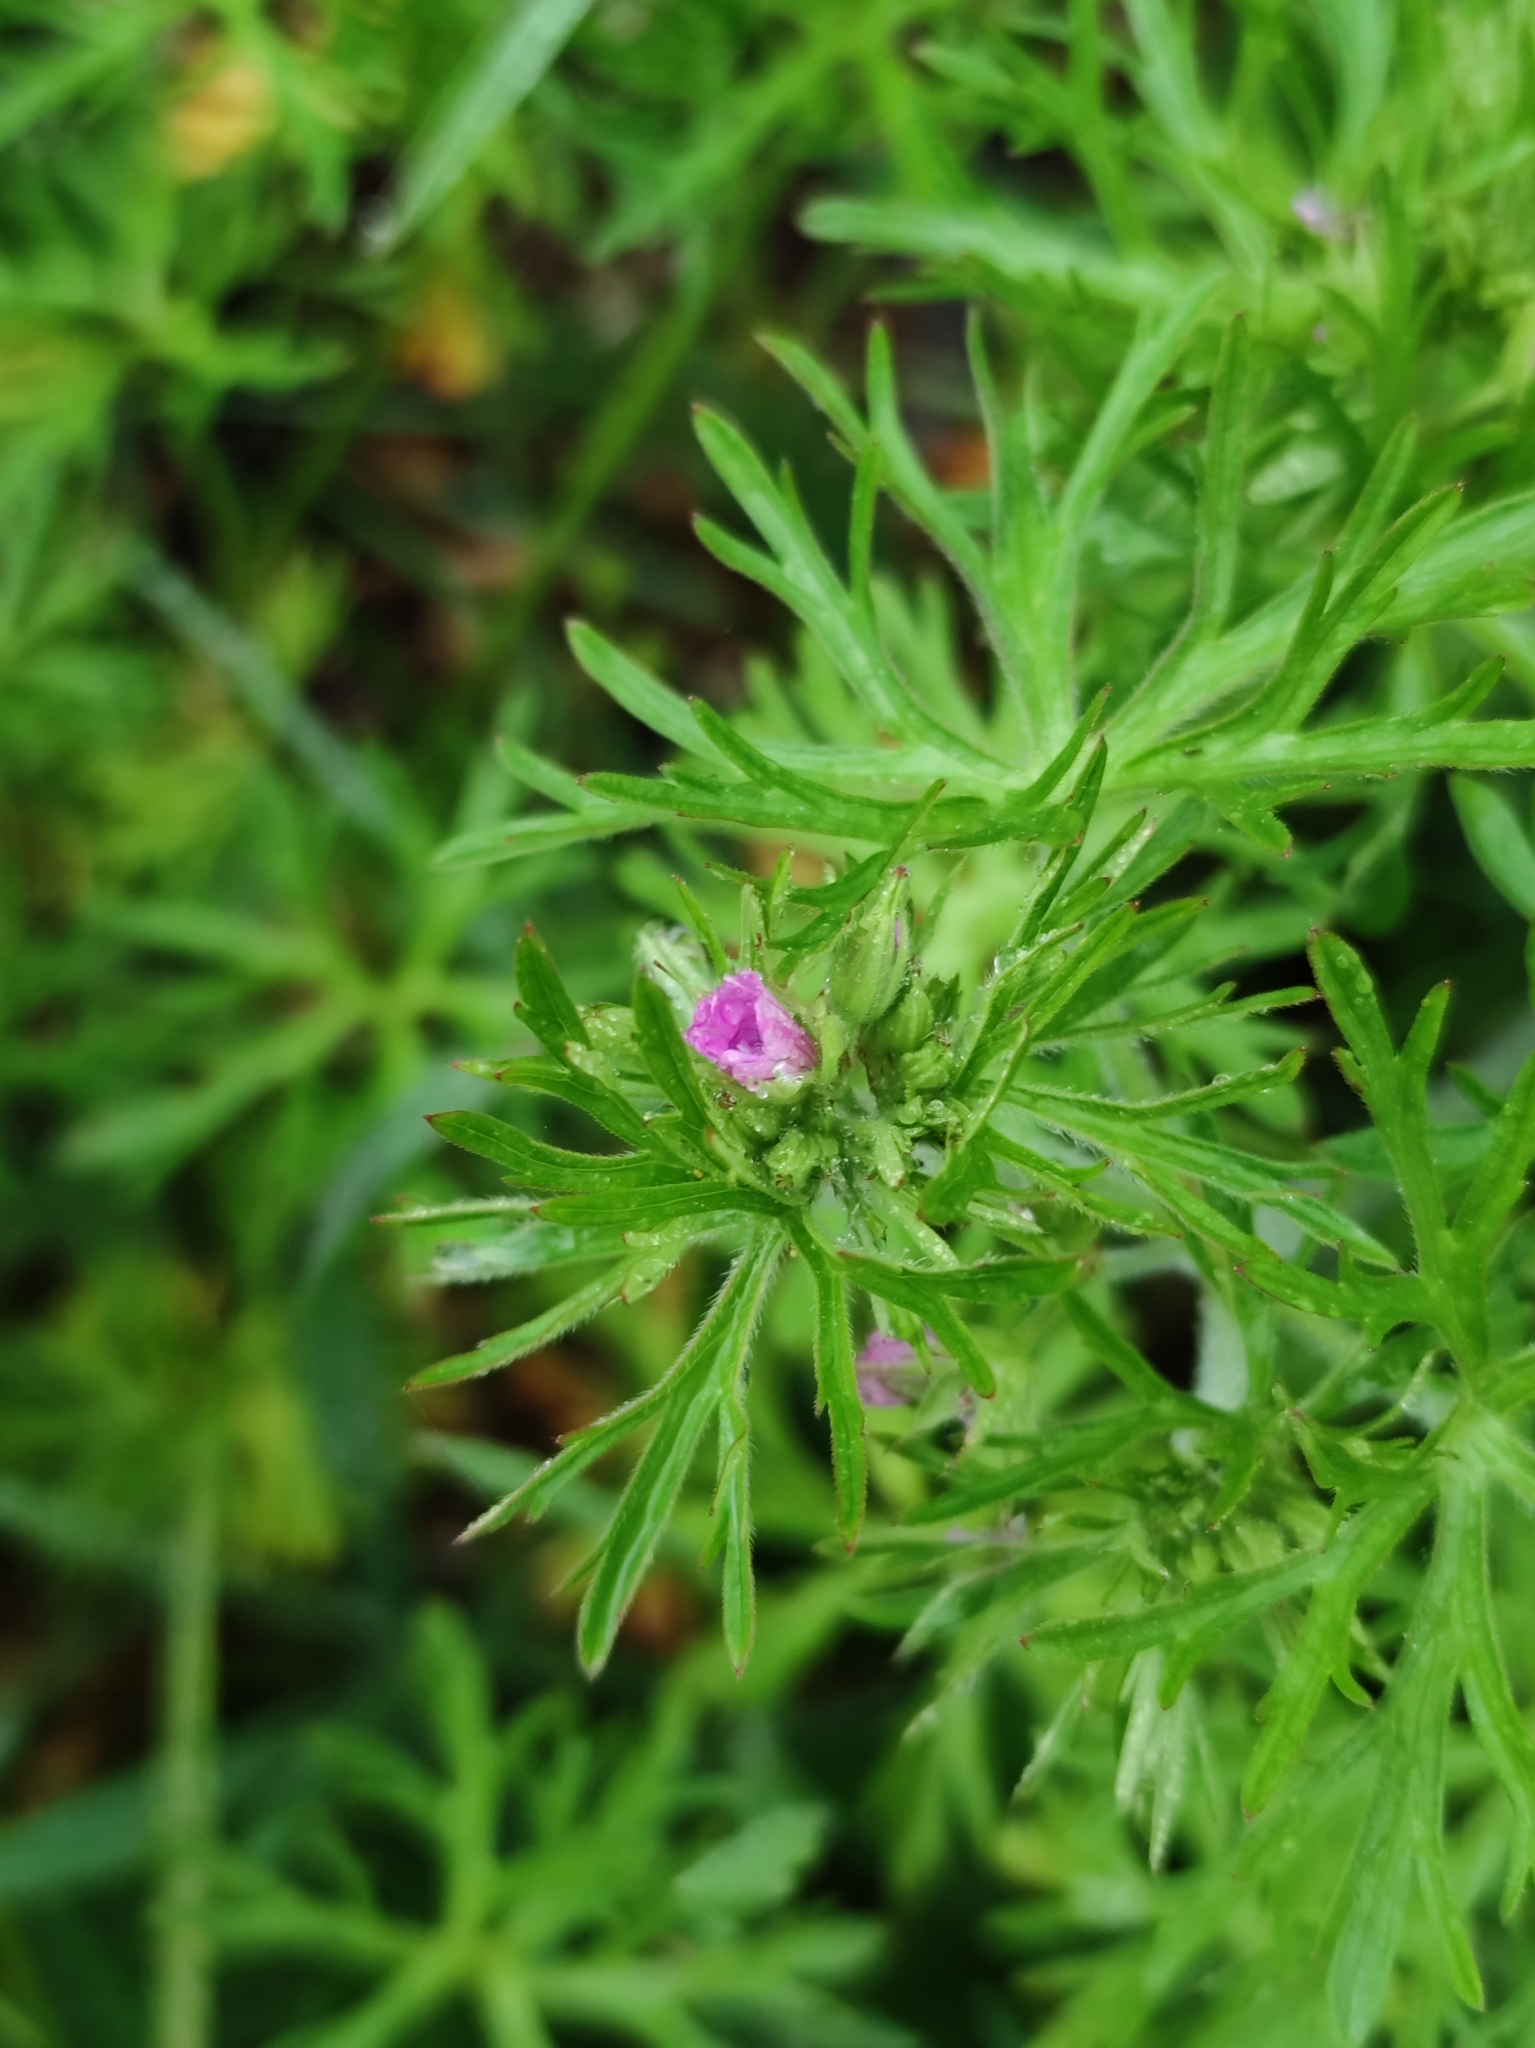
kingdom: Plantae
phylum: Tracheophyta
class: Magnoliopsida
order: Geraniales
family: Geraniaceae
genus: Geranium
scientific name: Geranium dissectum
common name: Cut-leaved crane's-bill
